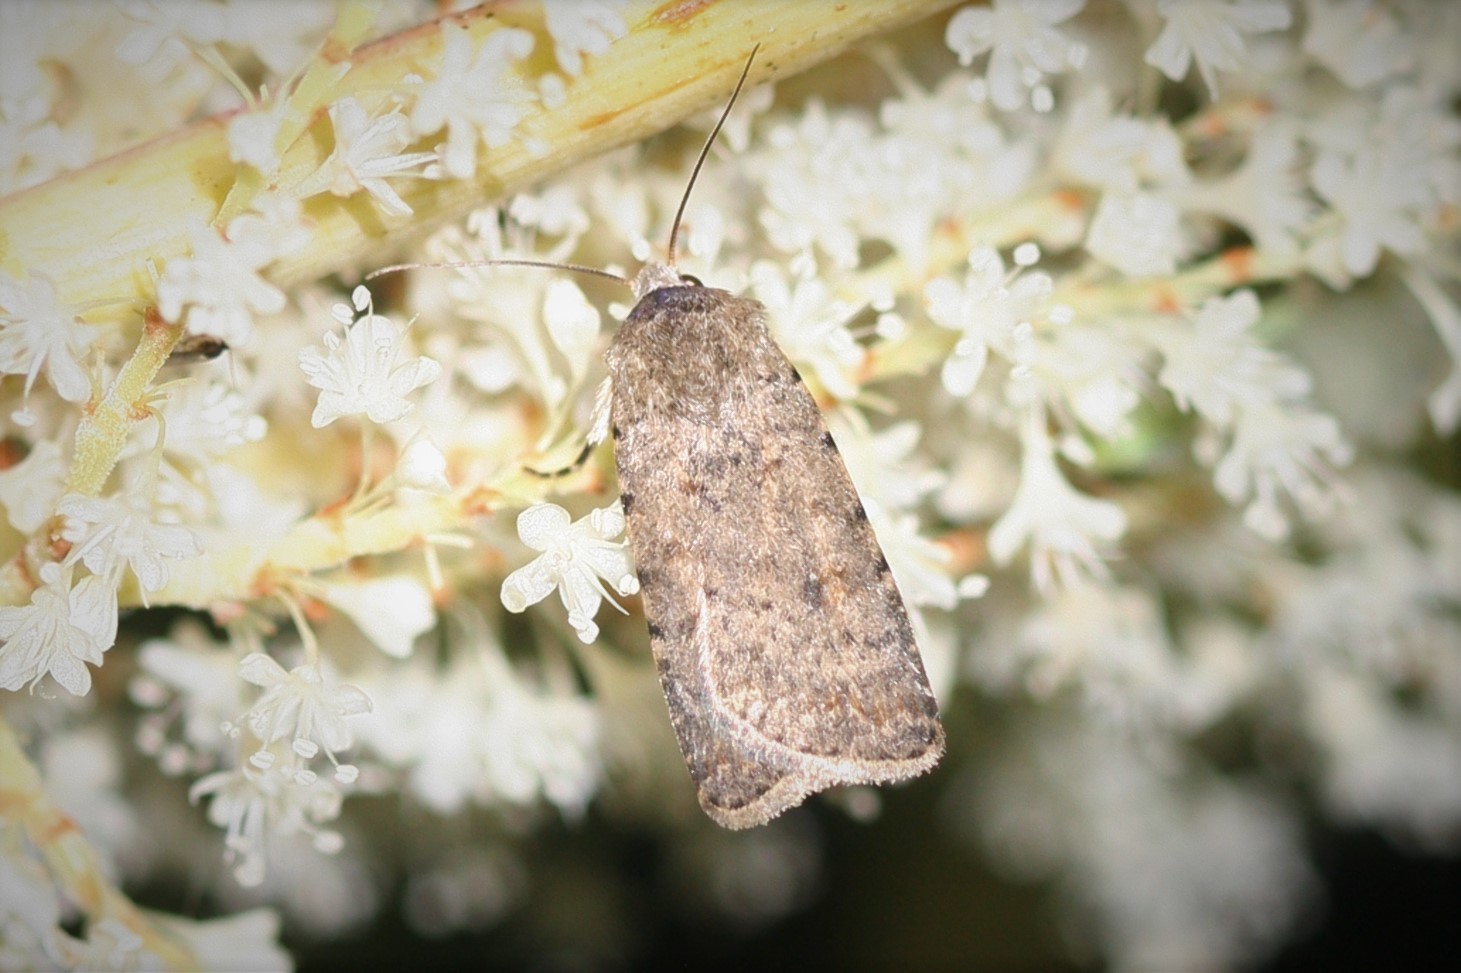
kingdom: Animalia
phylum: Arthropoda
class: Insecta
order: Lepidoptera
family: Noctuidae
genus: Caradrina
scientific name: Caradrina clavipalpis
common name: Pale mottled willow
